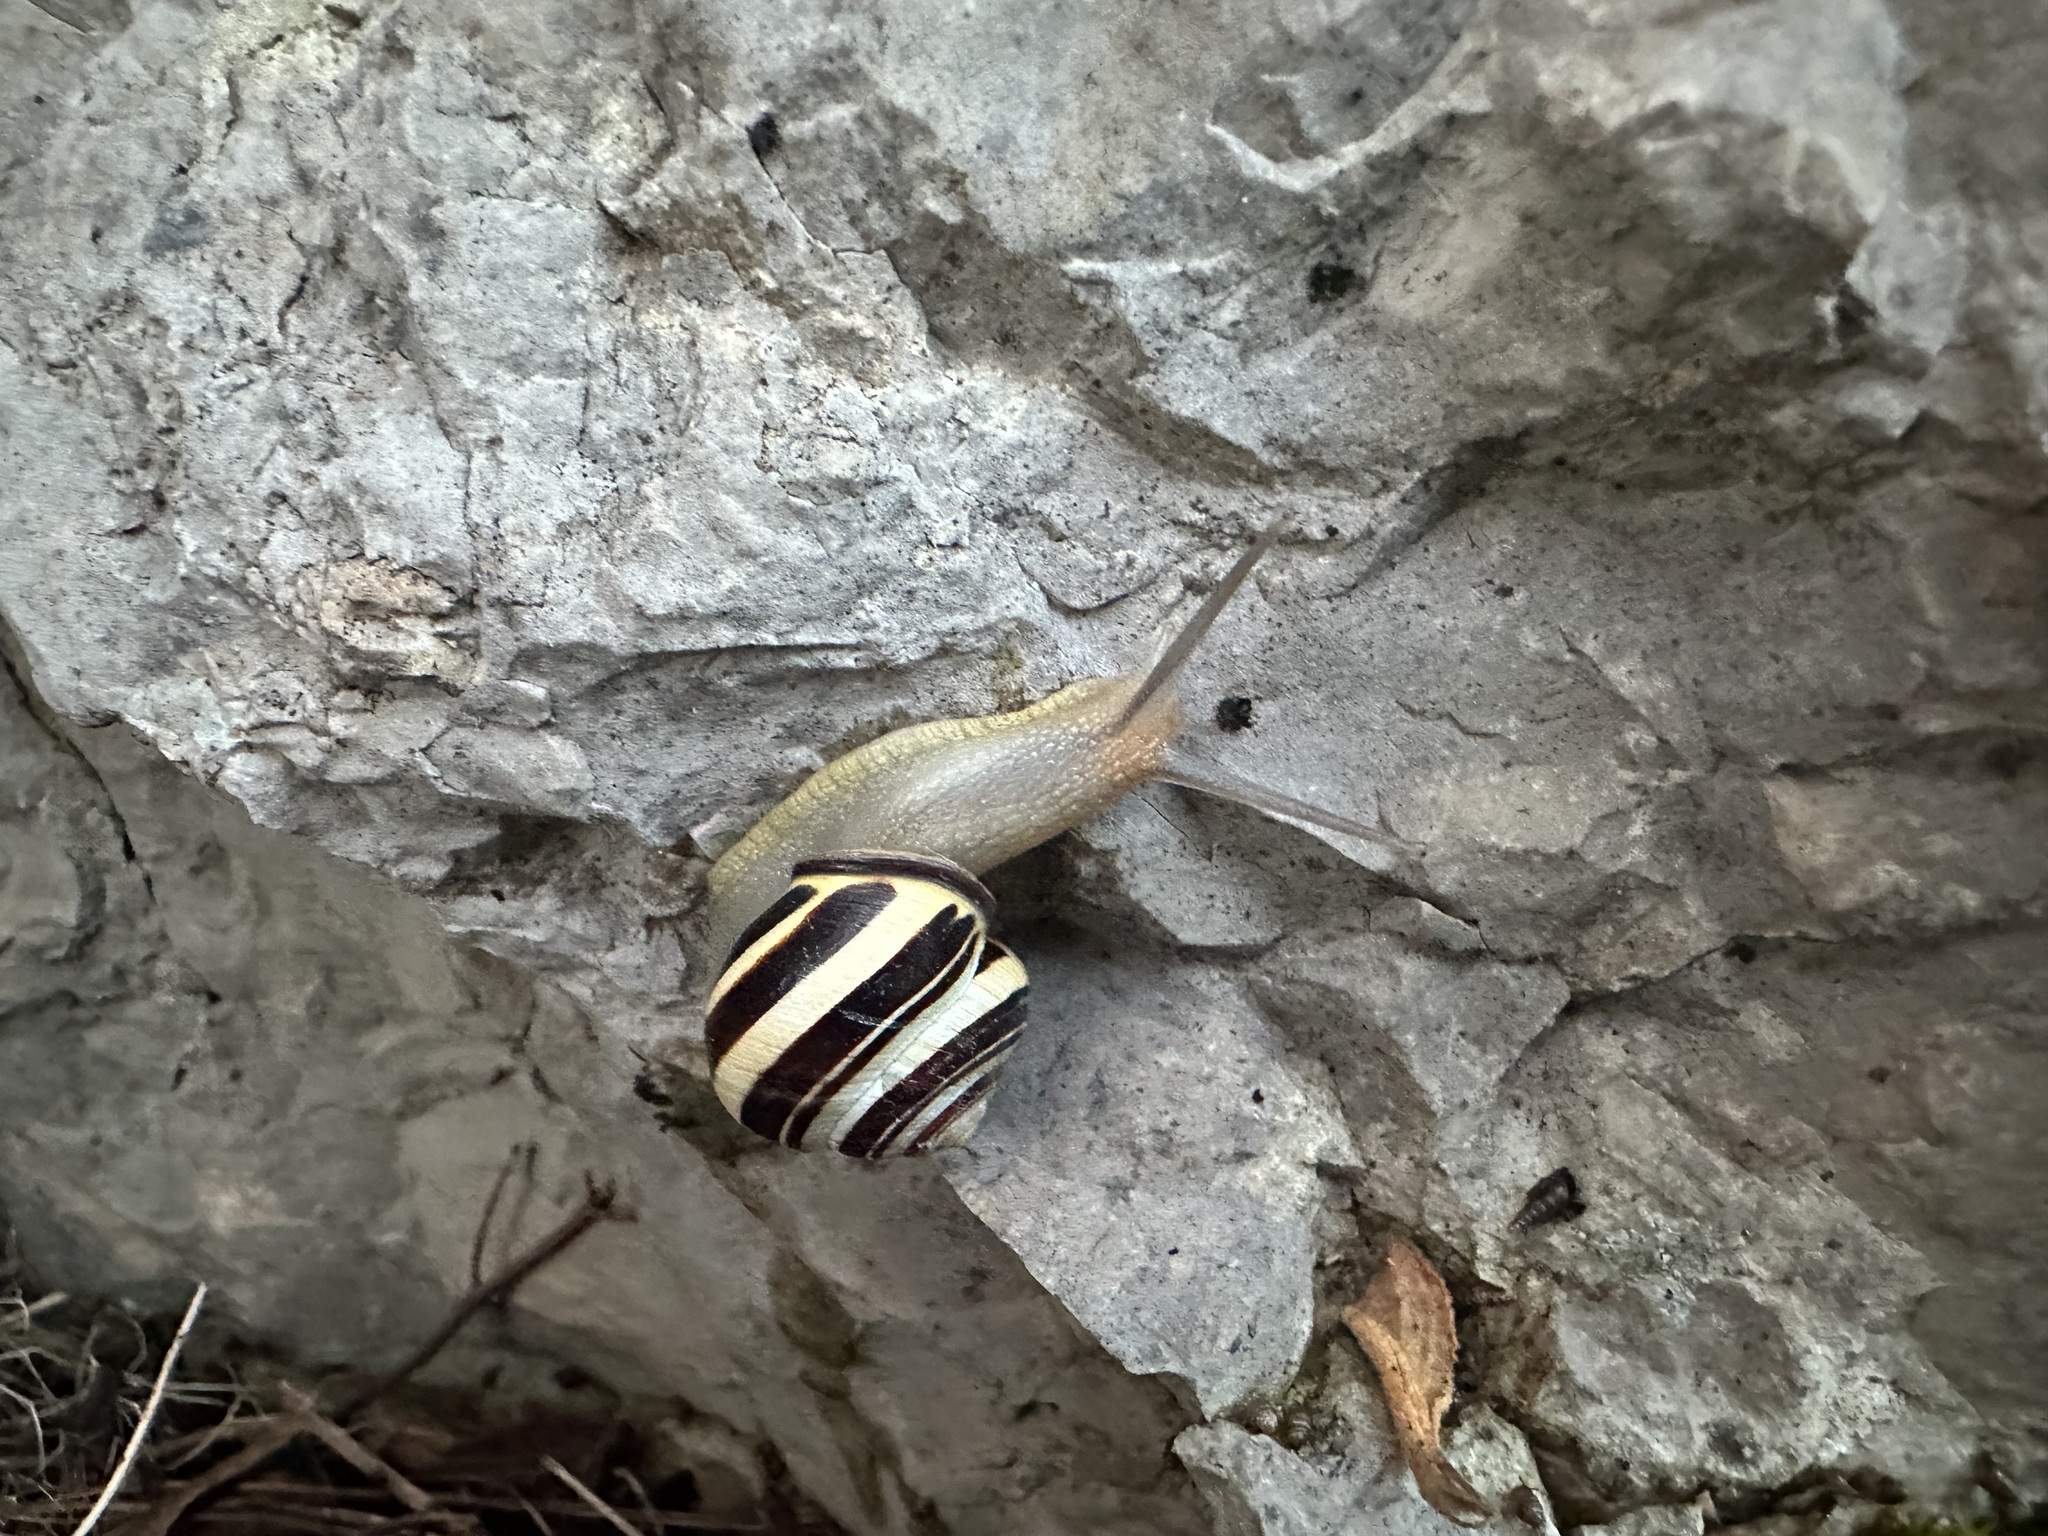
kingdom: Animalia
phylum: Mollusca
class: Gastropoda
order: Stylommatophora
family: Helicidae
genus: Cepaea
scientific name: Cepaea nemoralis
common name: Grovesnail
